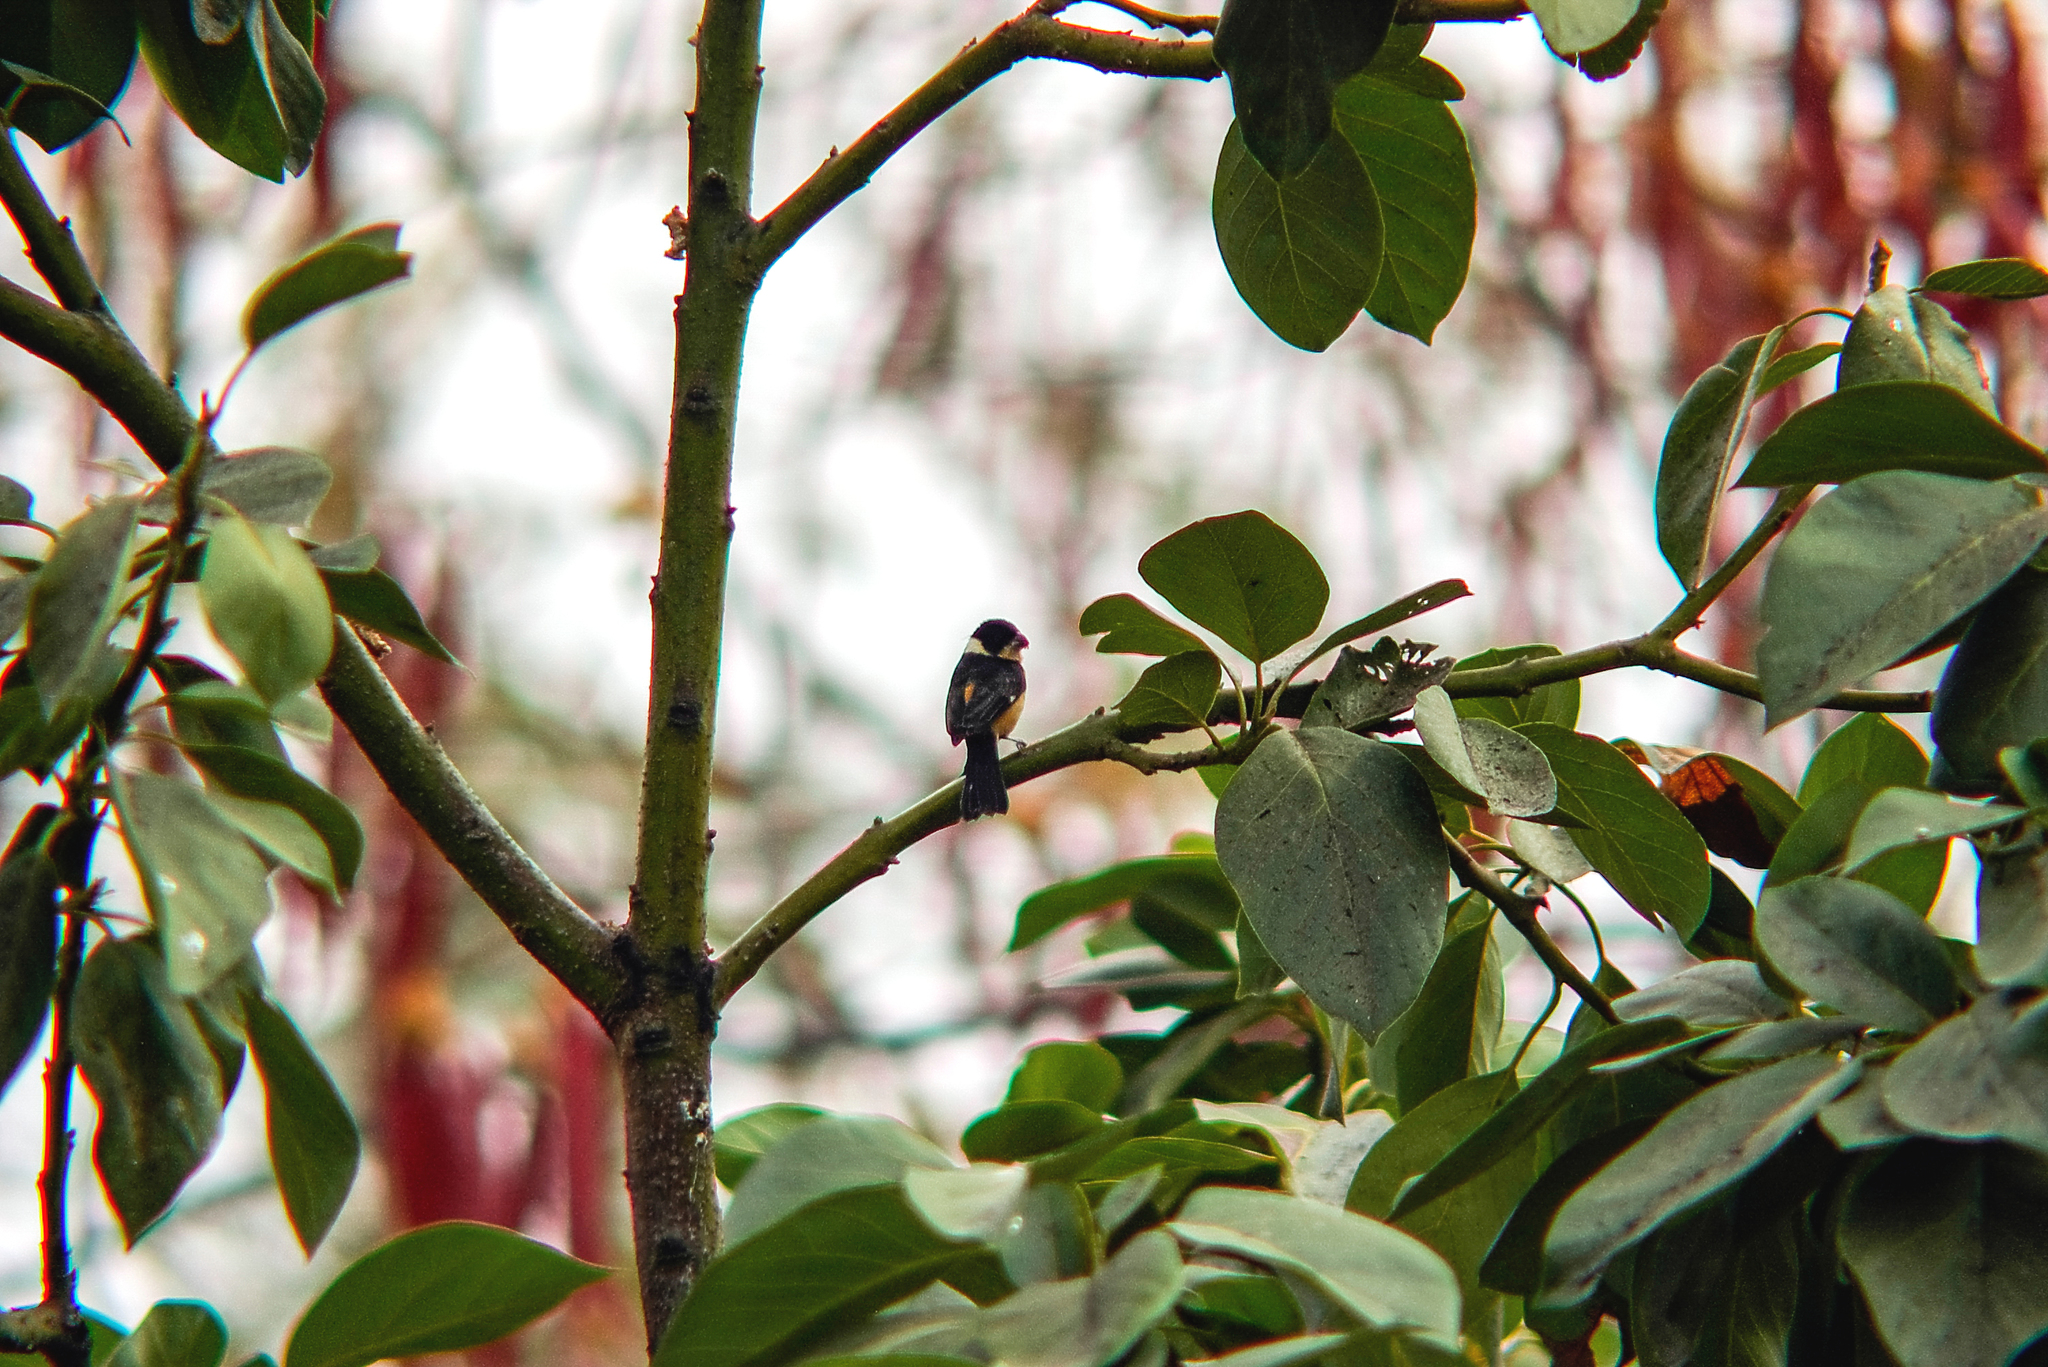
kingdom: Animalia
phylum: Chordata
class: Aves
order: Passeriformes
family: Thraupidae
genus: Sporophila
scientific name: Sporophila torqueola
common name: White-collared seedeater
